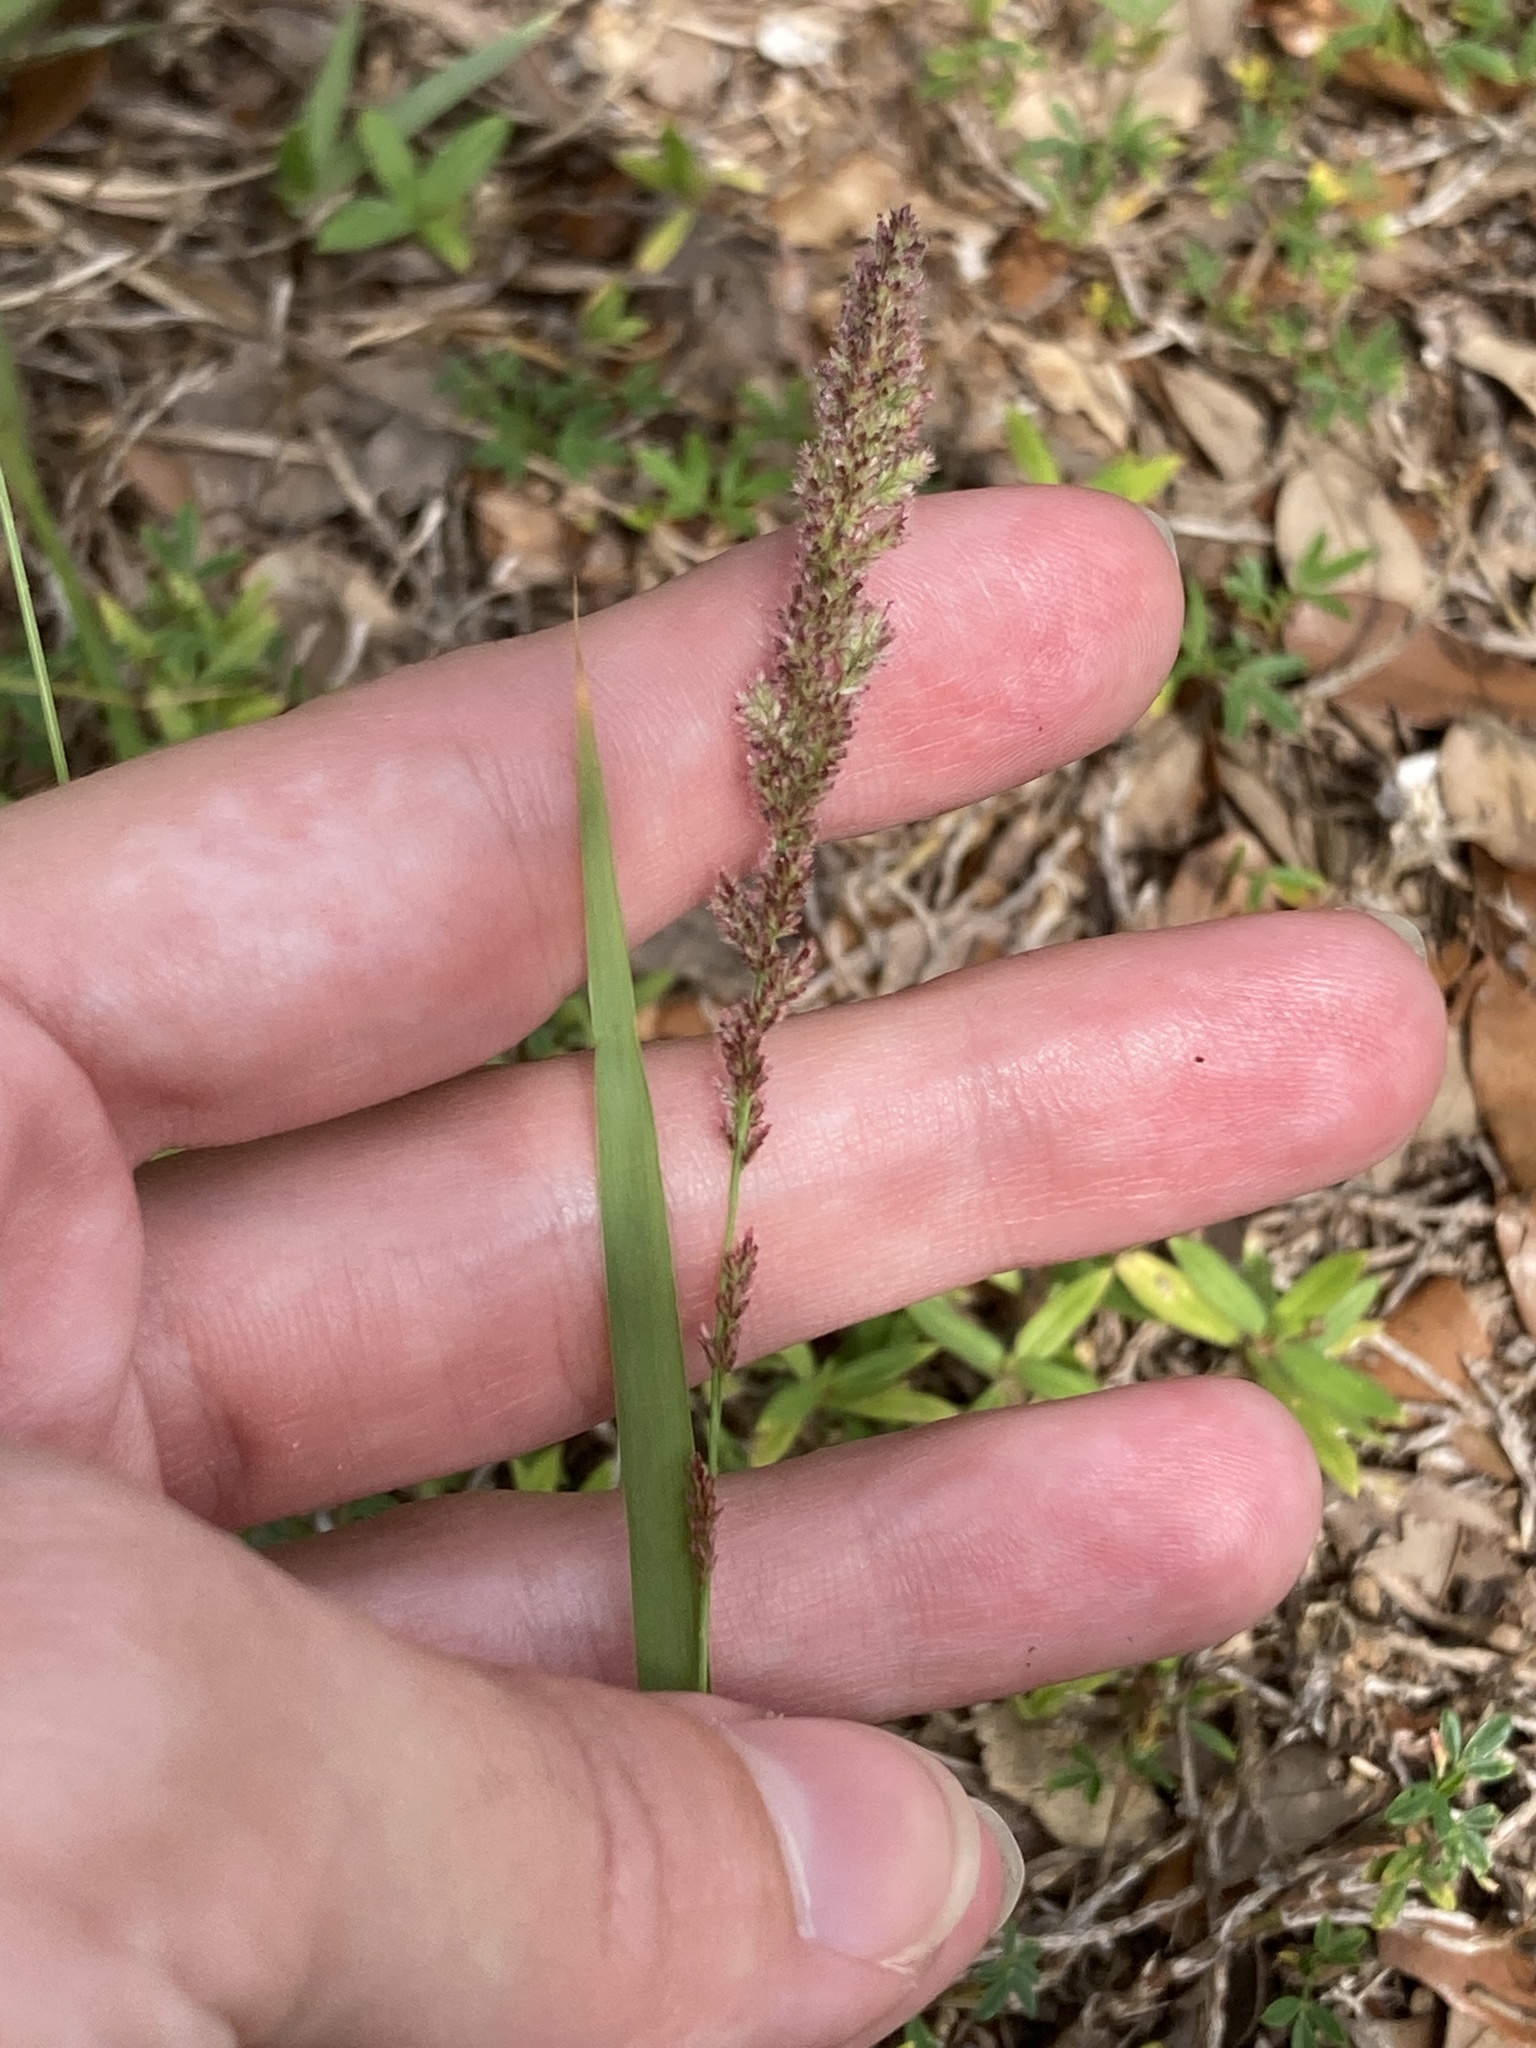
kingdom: Plantae
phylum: Tracheophyta
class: Liliopsida
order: Poales
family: Poaceae
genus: Eragrostis
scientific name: Eragrostis ciliaris
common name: Gophertail lovegrass
